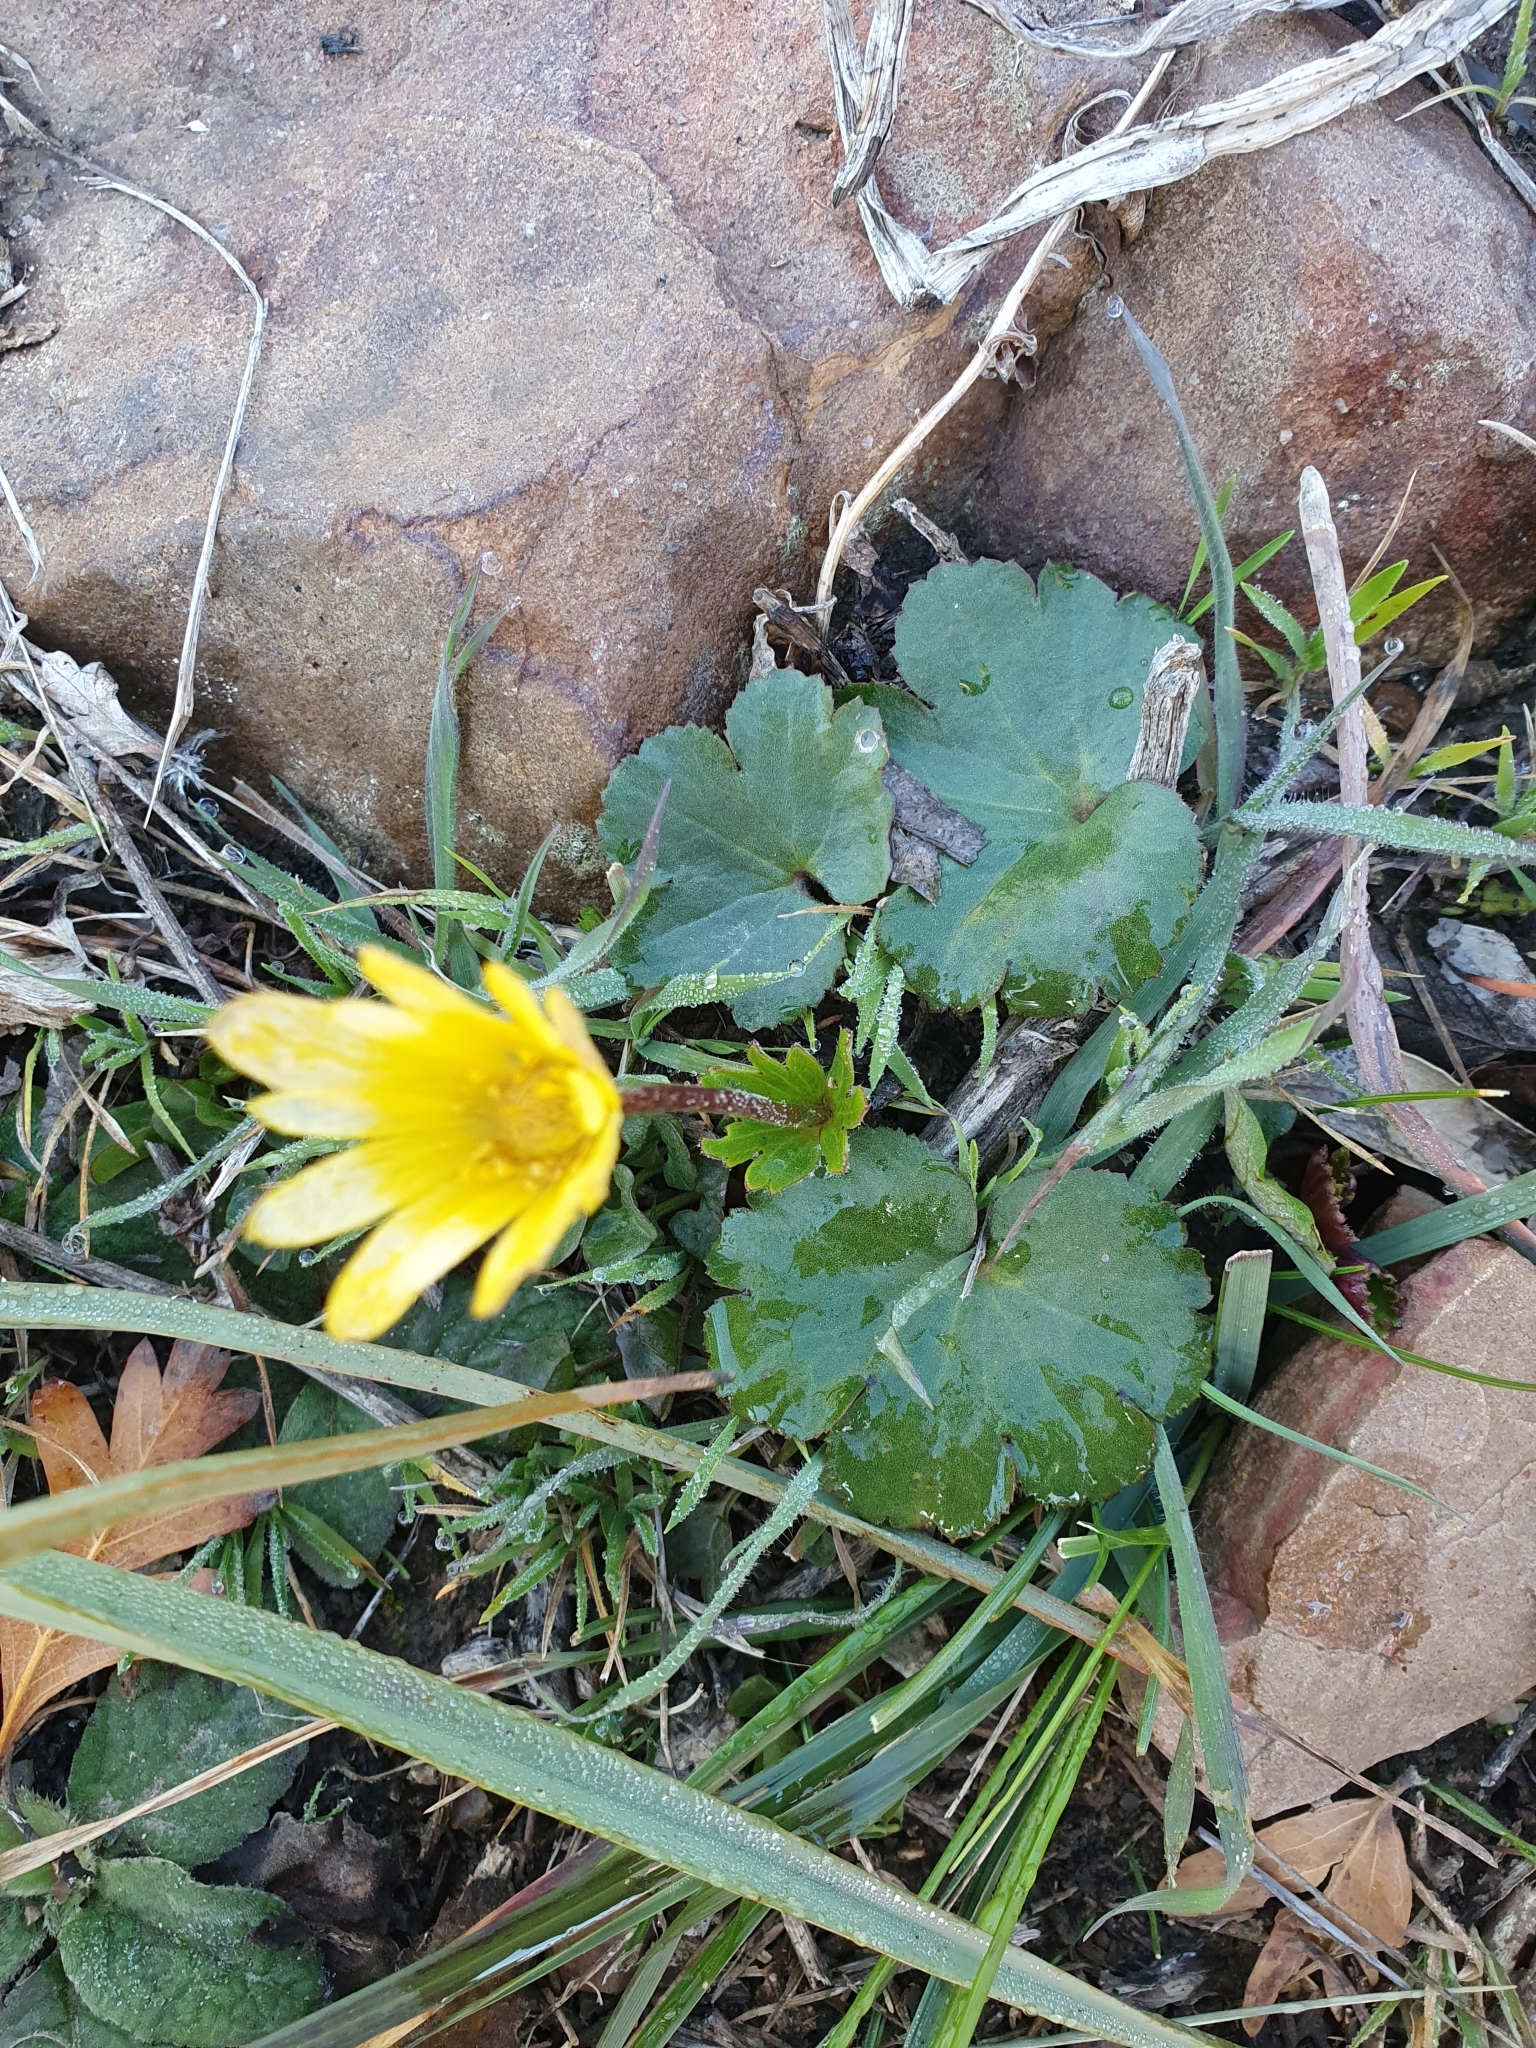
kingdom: Plantae
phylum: Tracheophyta
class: Magnoliopsida
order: Ranunculales
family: Ranunculaceae
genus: Anemone
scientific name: Anemone palmata
